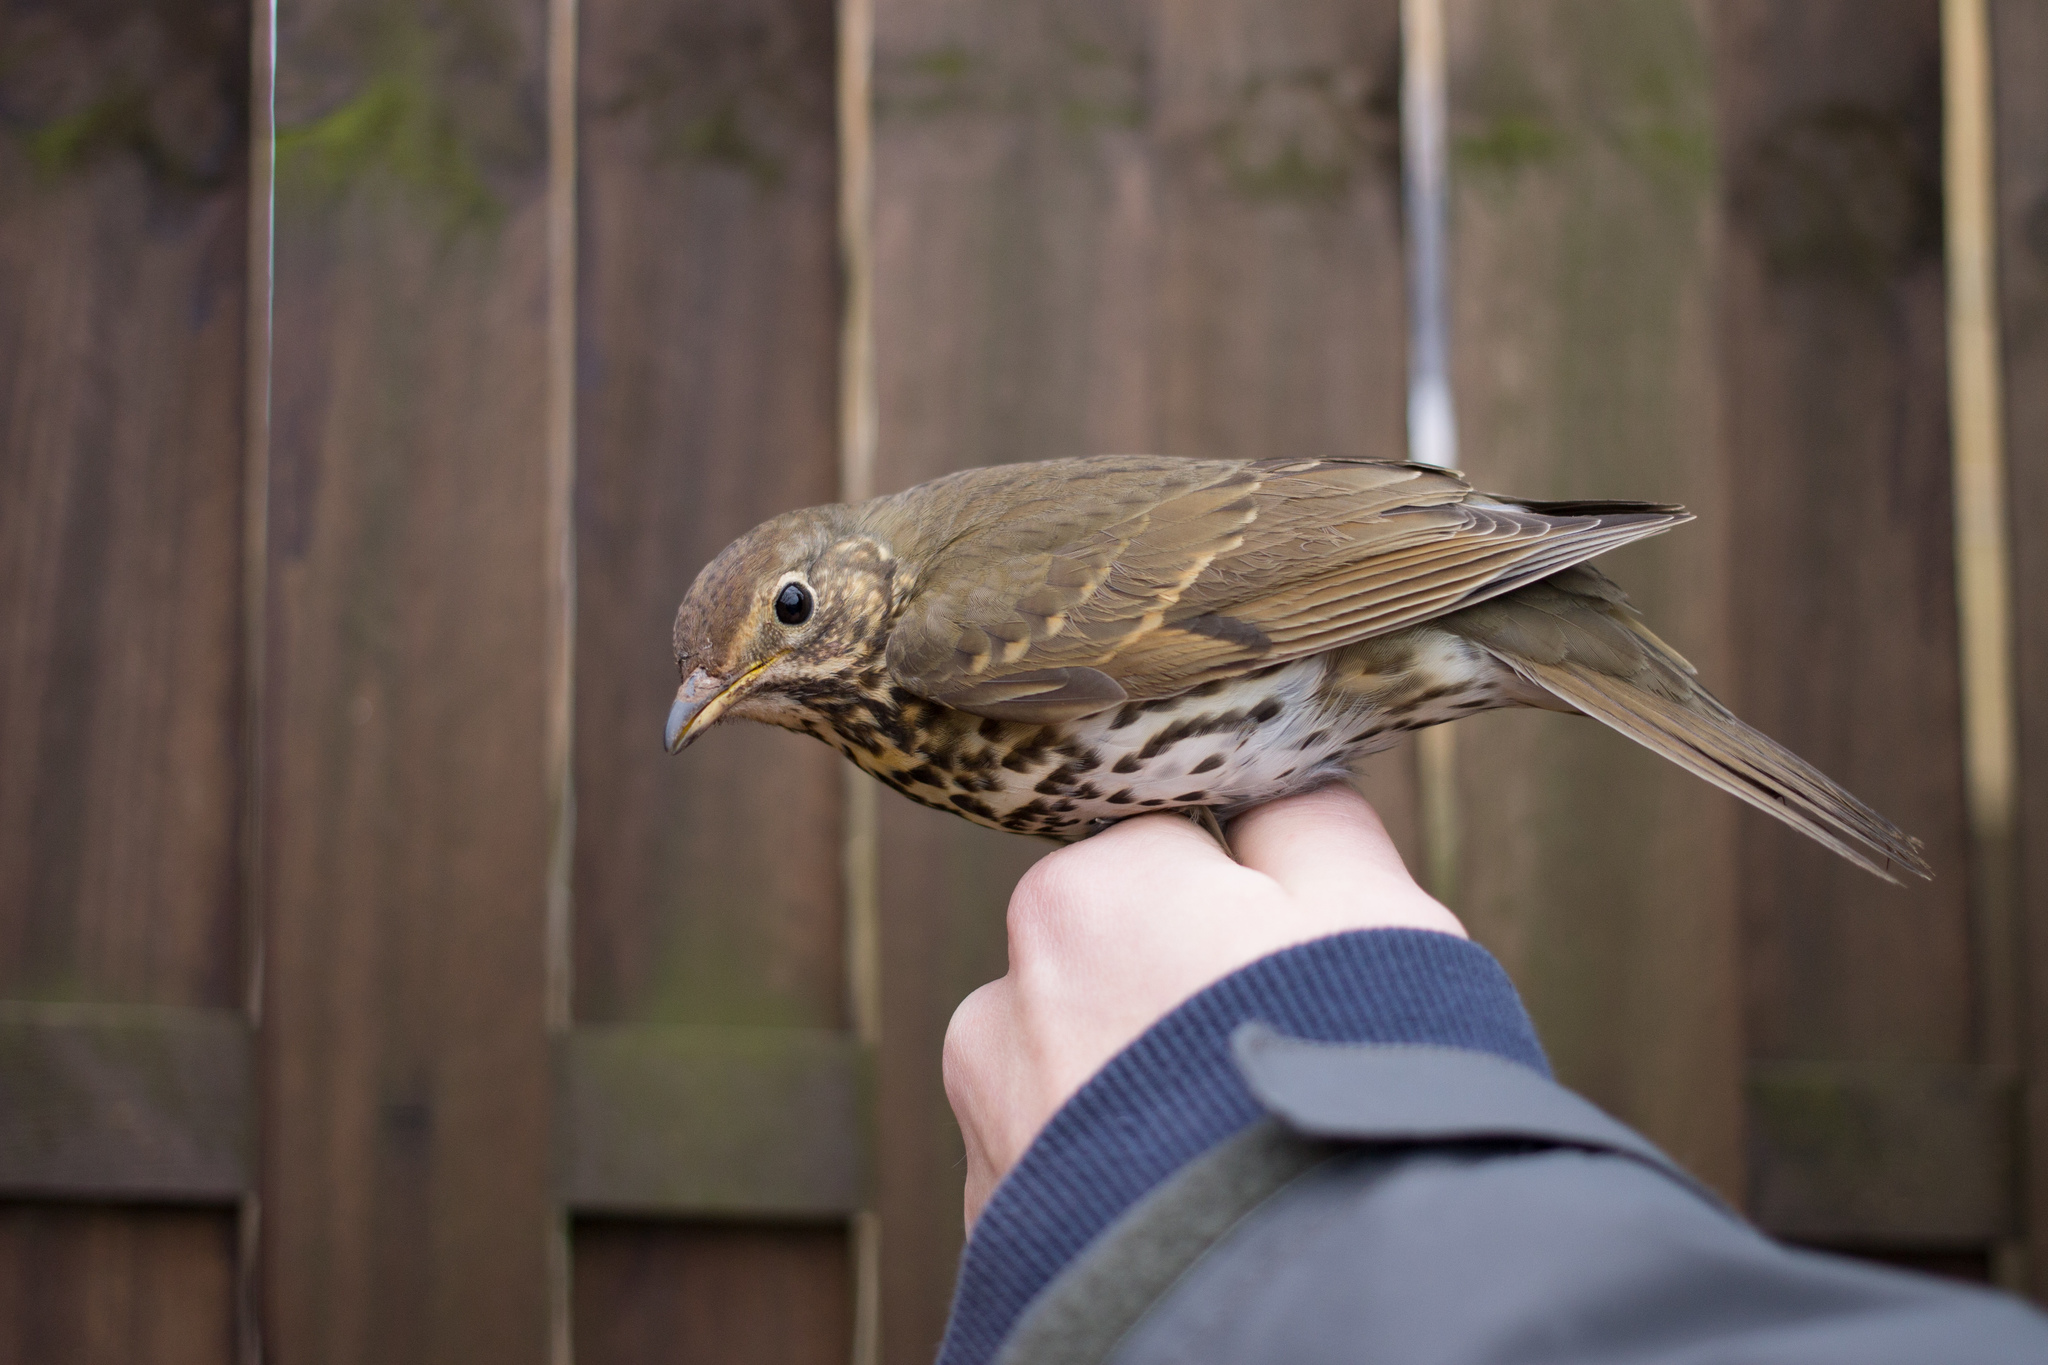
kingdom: Animalia
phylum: Chordata
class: Aves
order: Passeriformes
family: Turdidae
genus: Turdus
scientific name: Turdus philomelos
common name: Song thrush
